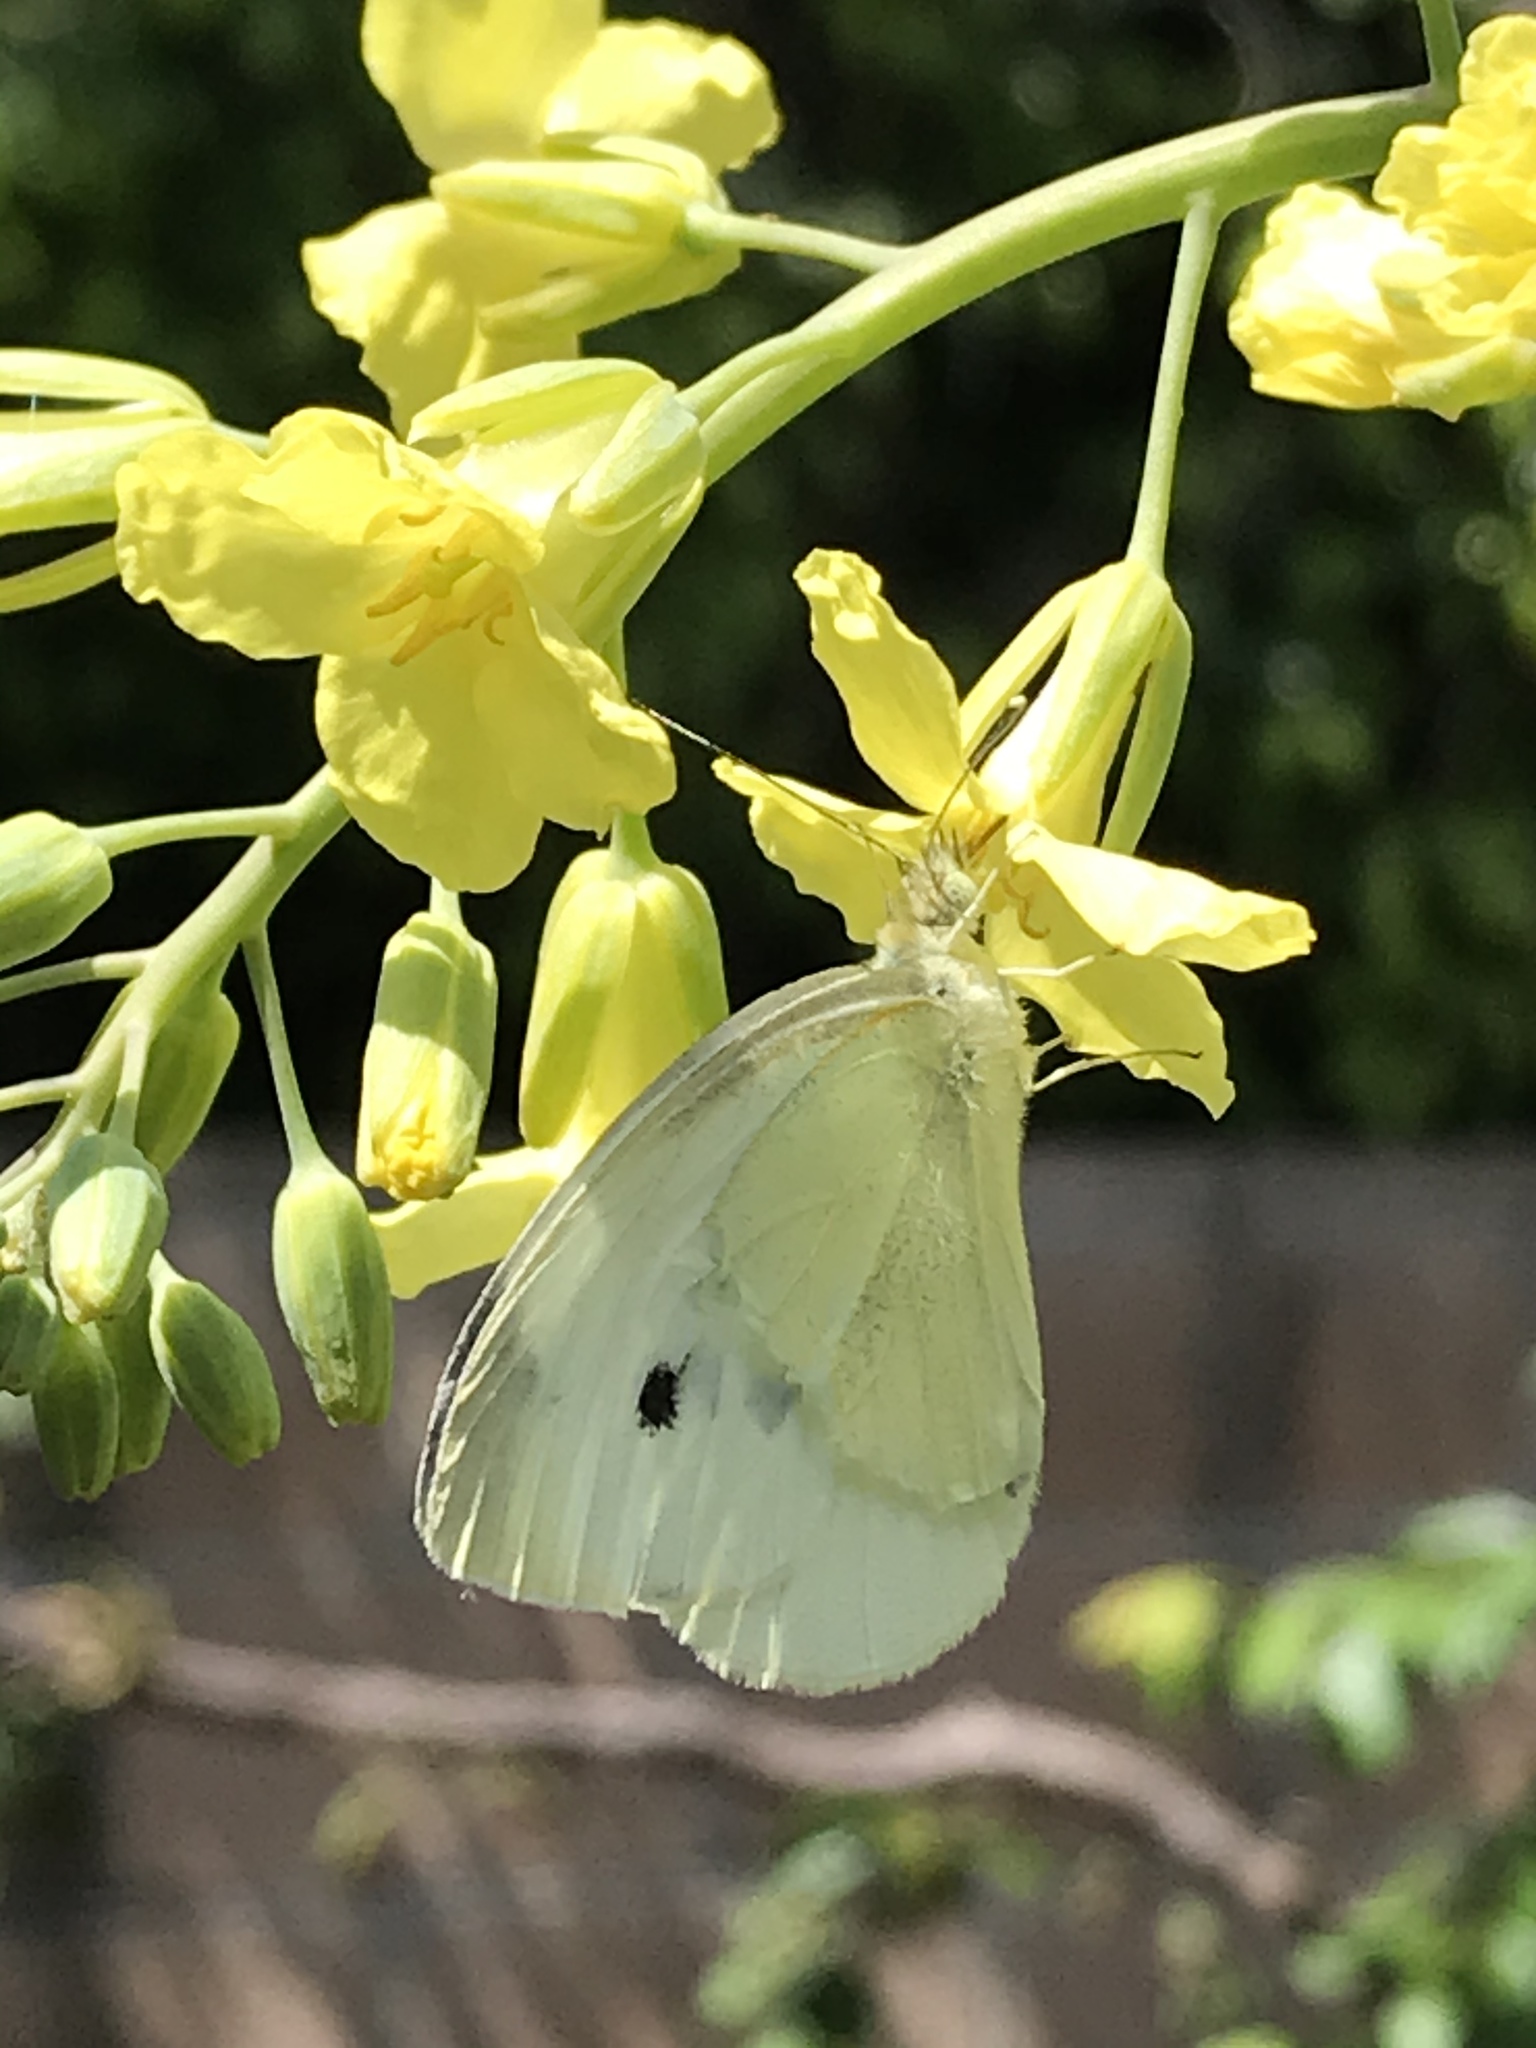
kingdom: Animalia
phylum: Arthropoda
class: Insecta
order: Lepidoptera
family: Pieridae
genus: Pieris
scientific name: Pieris rapae
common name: Small white
